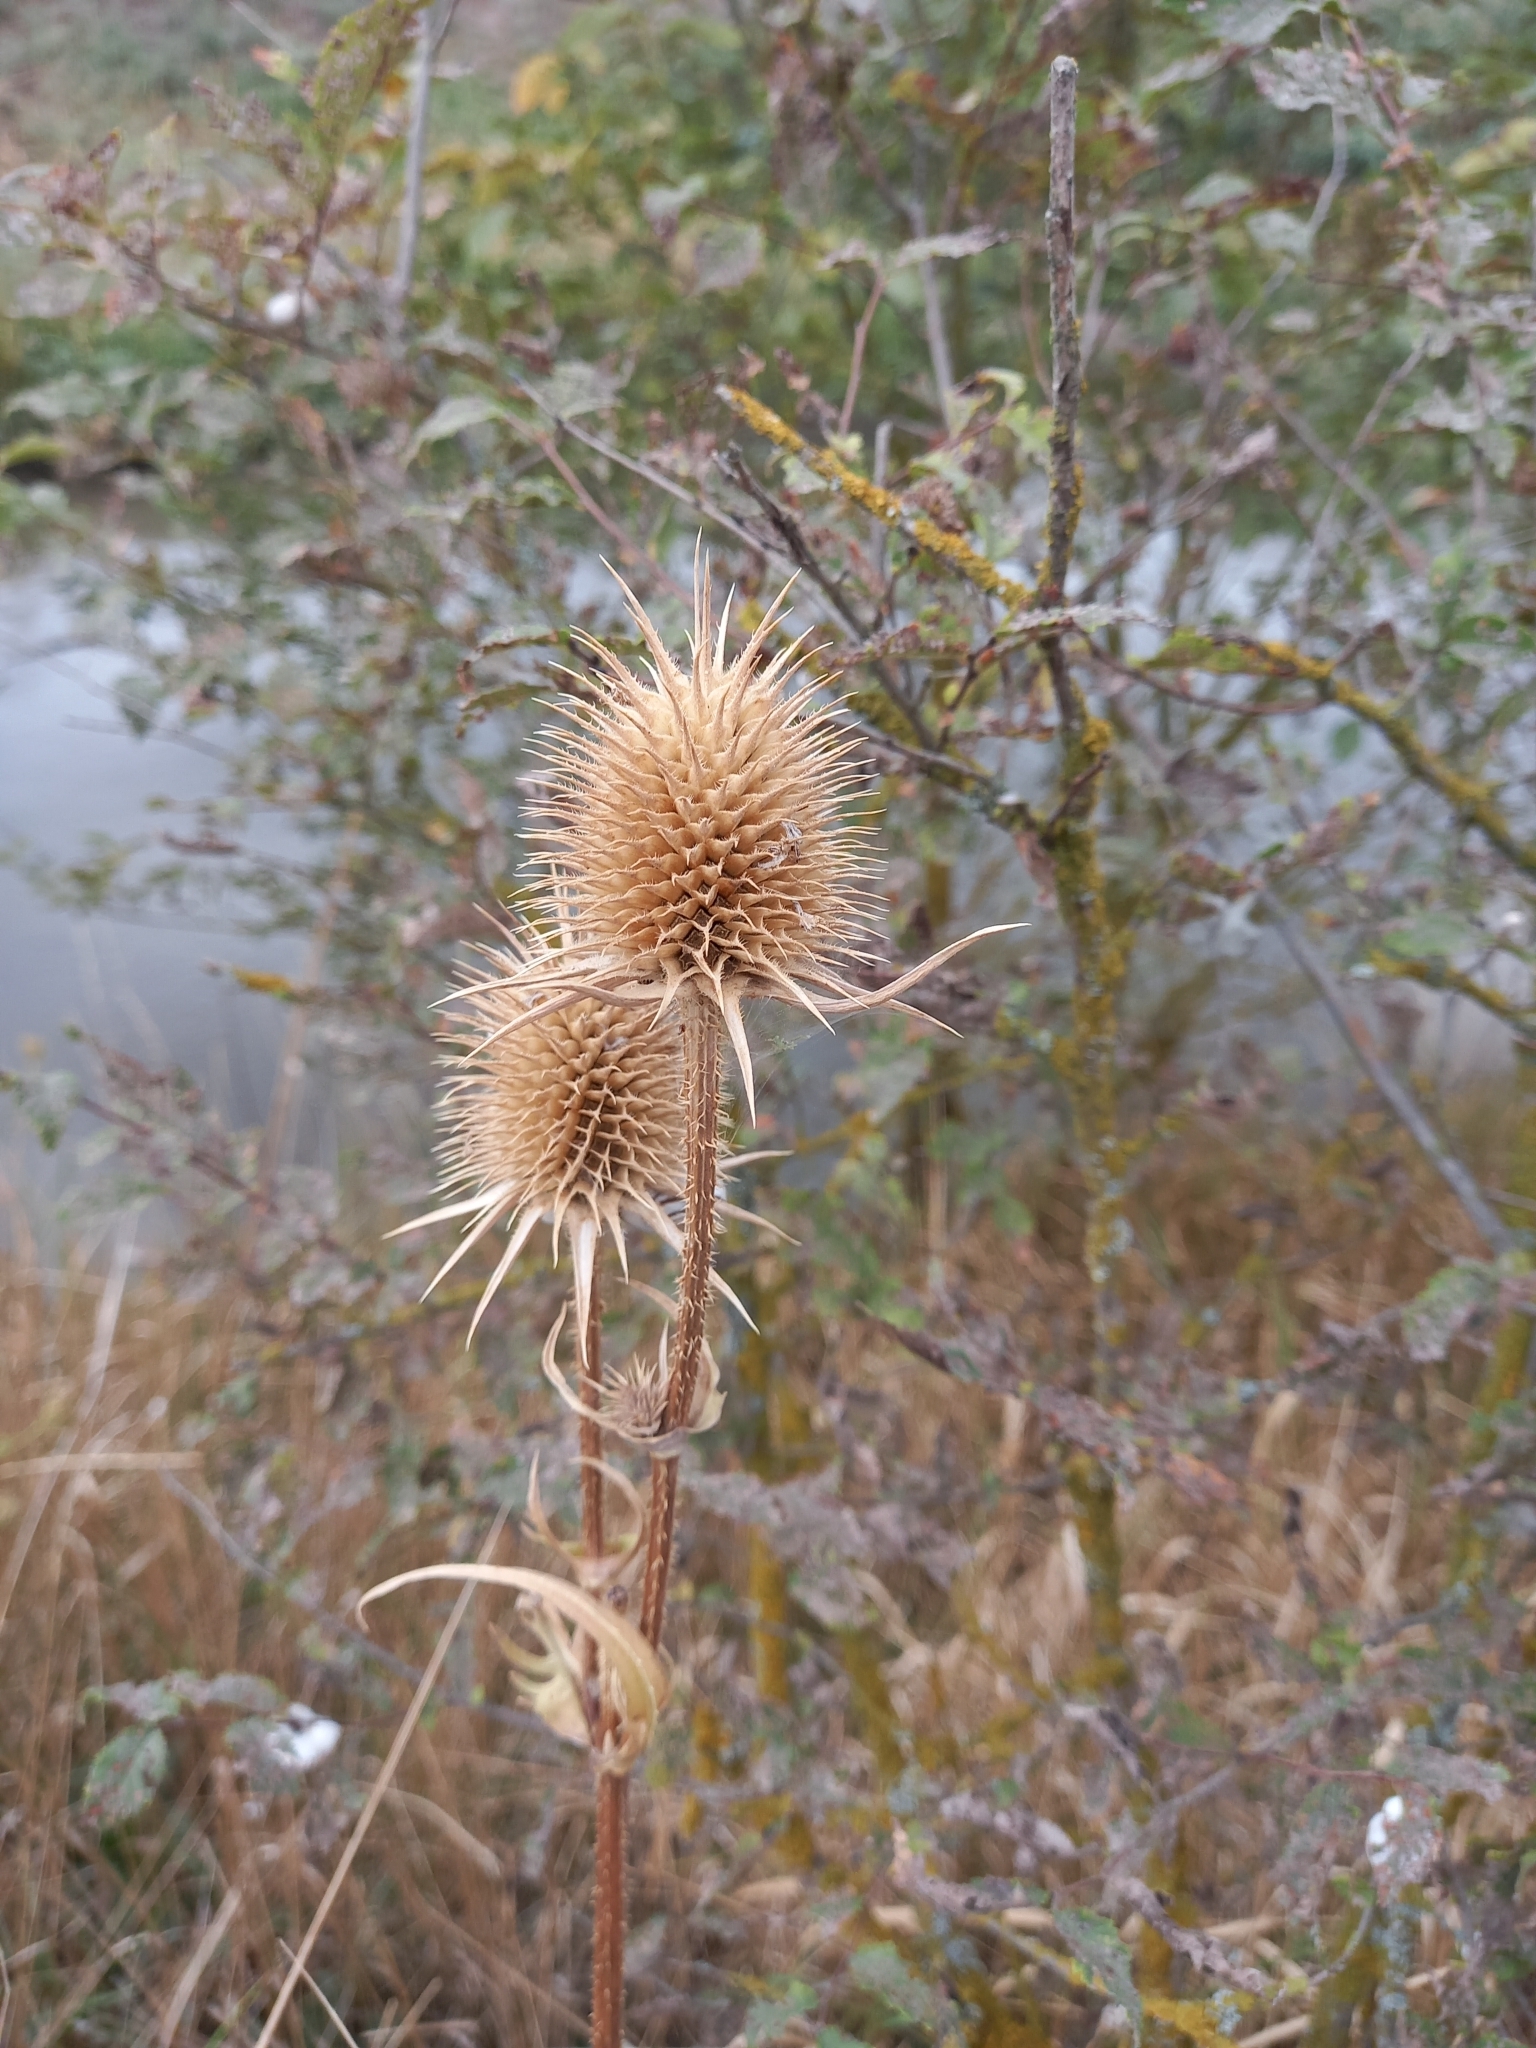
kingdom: Plantae
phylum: Tracheophyta
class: Magnoliopsida
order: Dipsacales
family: Caprifoliaceae
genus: Dipsacus
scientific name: Dipsacus laciniatus
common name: Cut-leaved teasel
